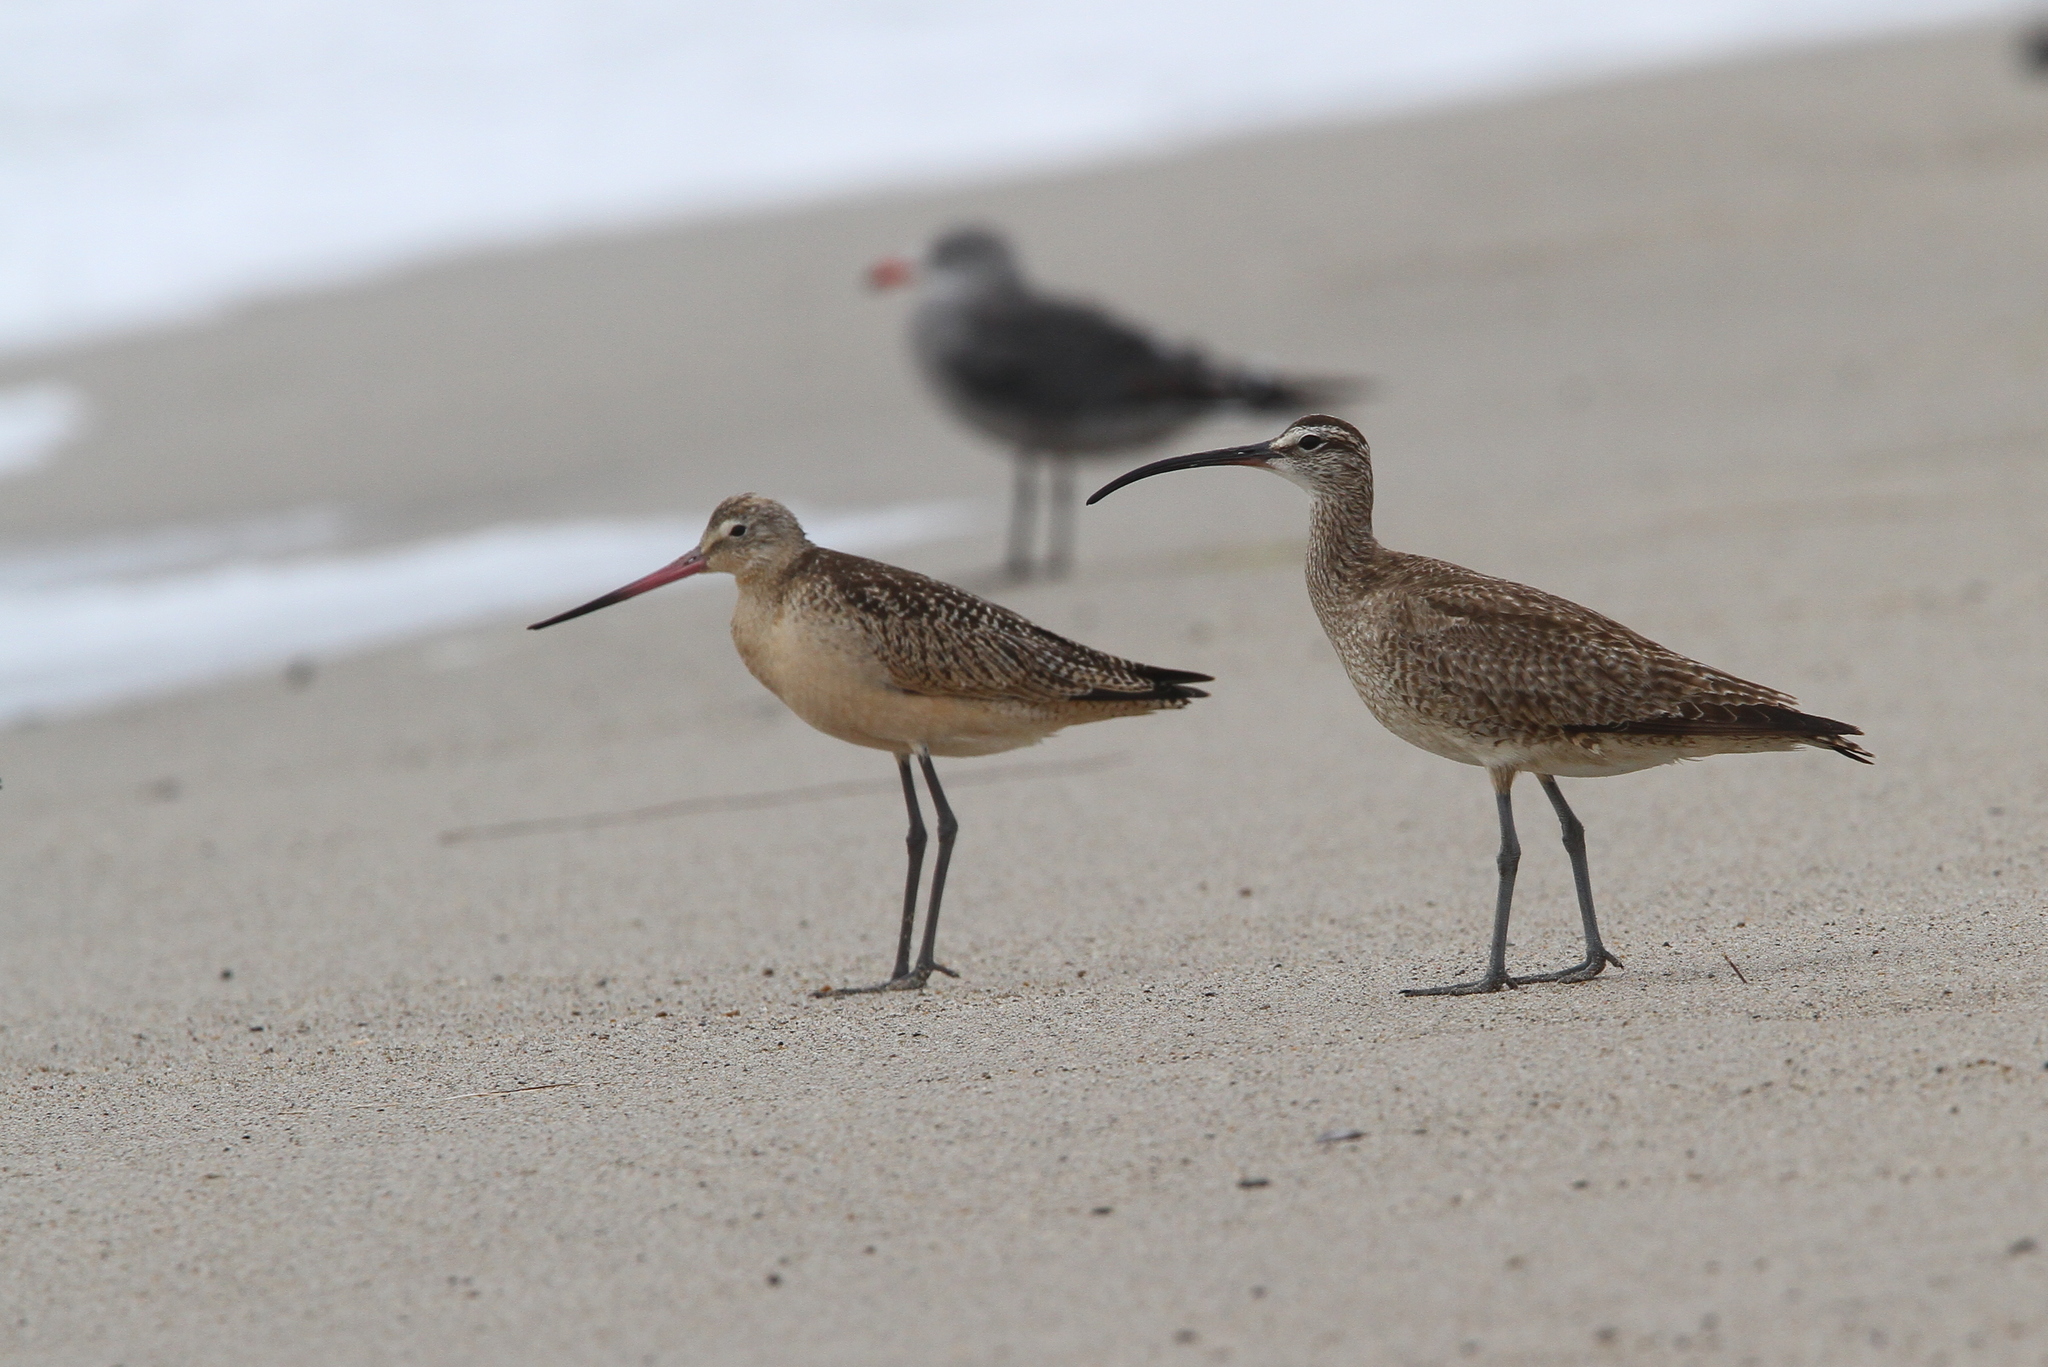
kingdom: Animalia
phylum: Chordata
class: Aves
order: Charadriiformes
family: Scolopacidae
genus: Numenius
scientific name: Numenius phaeopus
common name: Whimbrel
